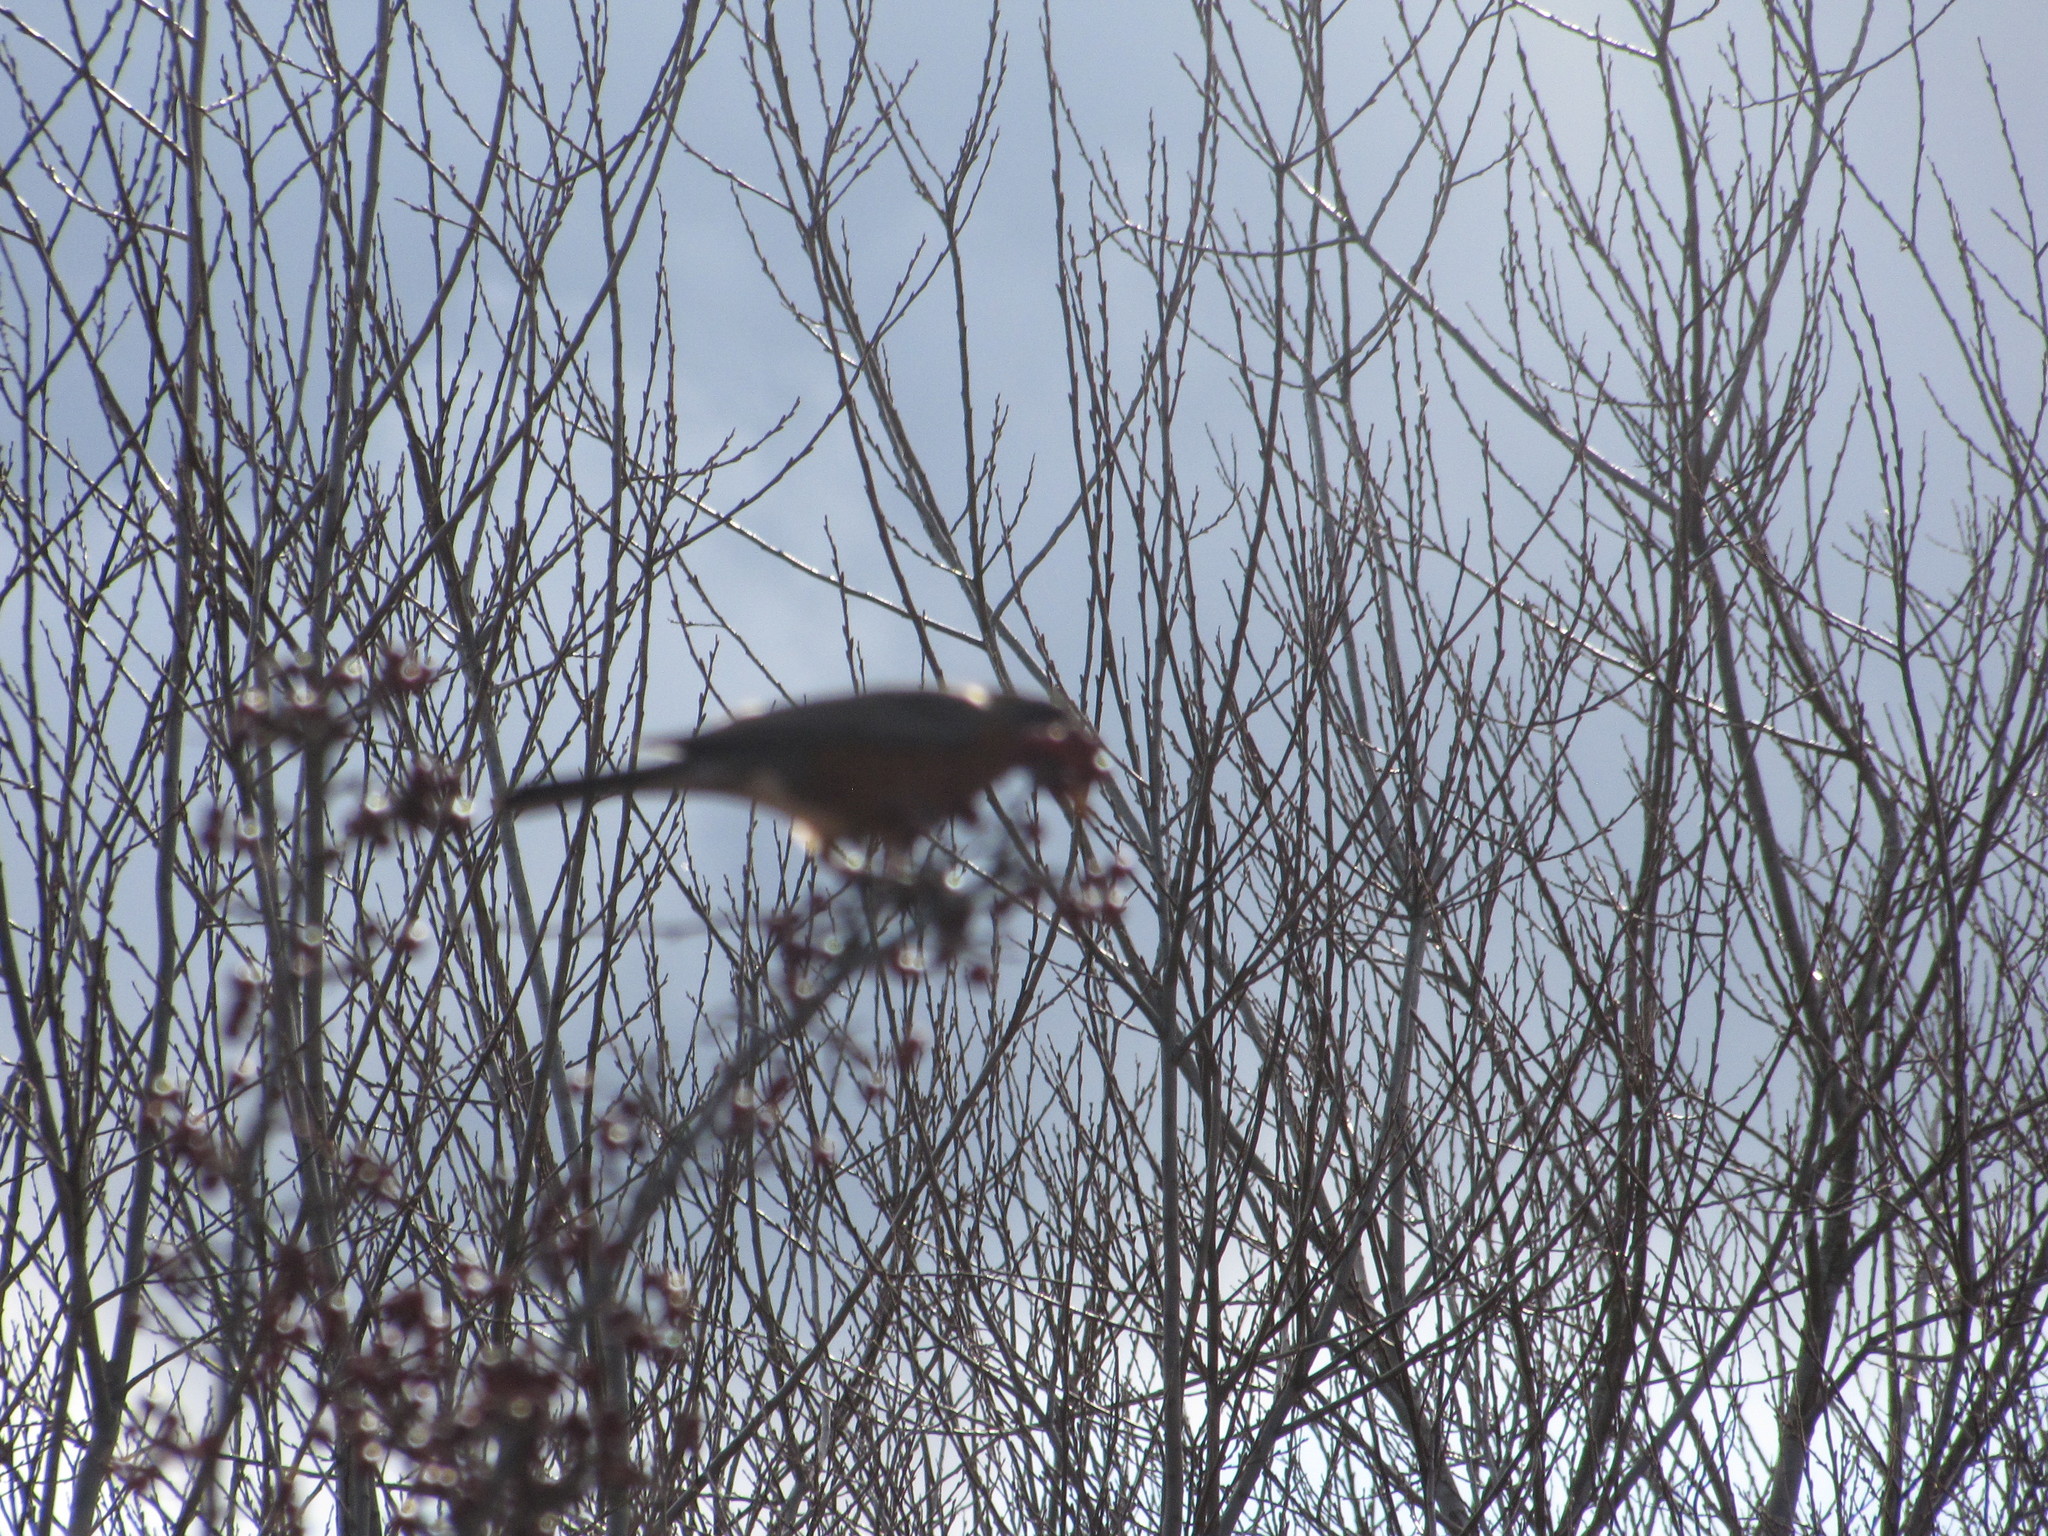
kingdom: Animalia
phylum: Chordata
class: Aves
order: Passeriformes
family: Turdidae
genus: Turdus
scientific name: Turdus migratorius
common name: American robin
